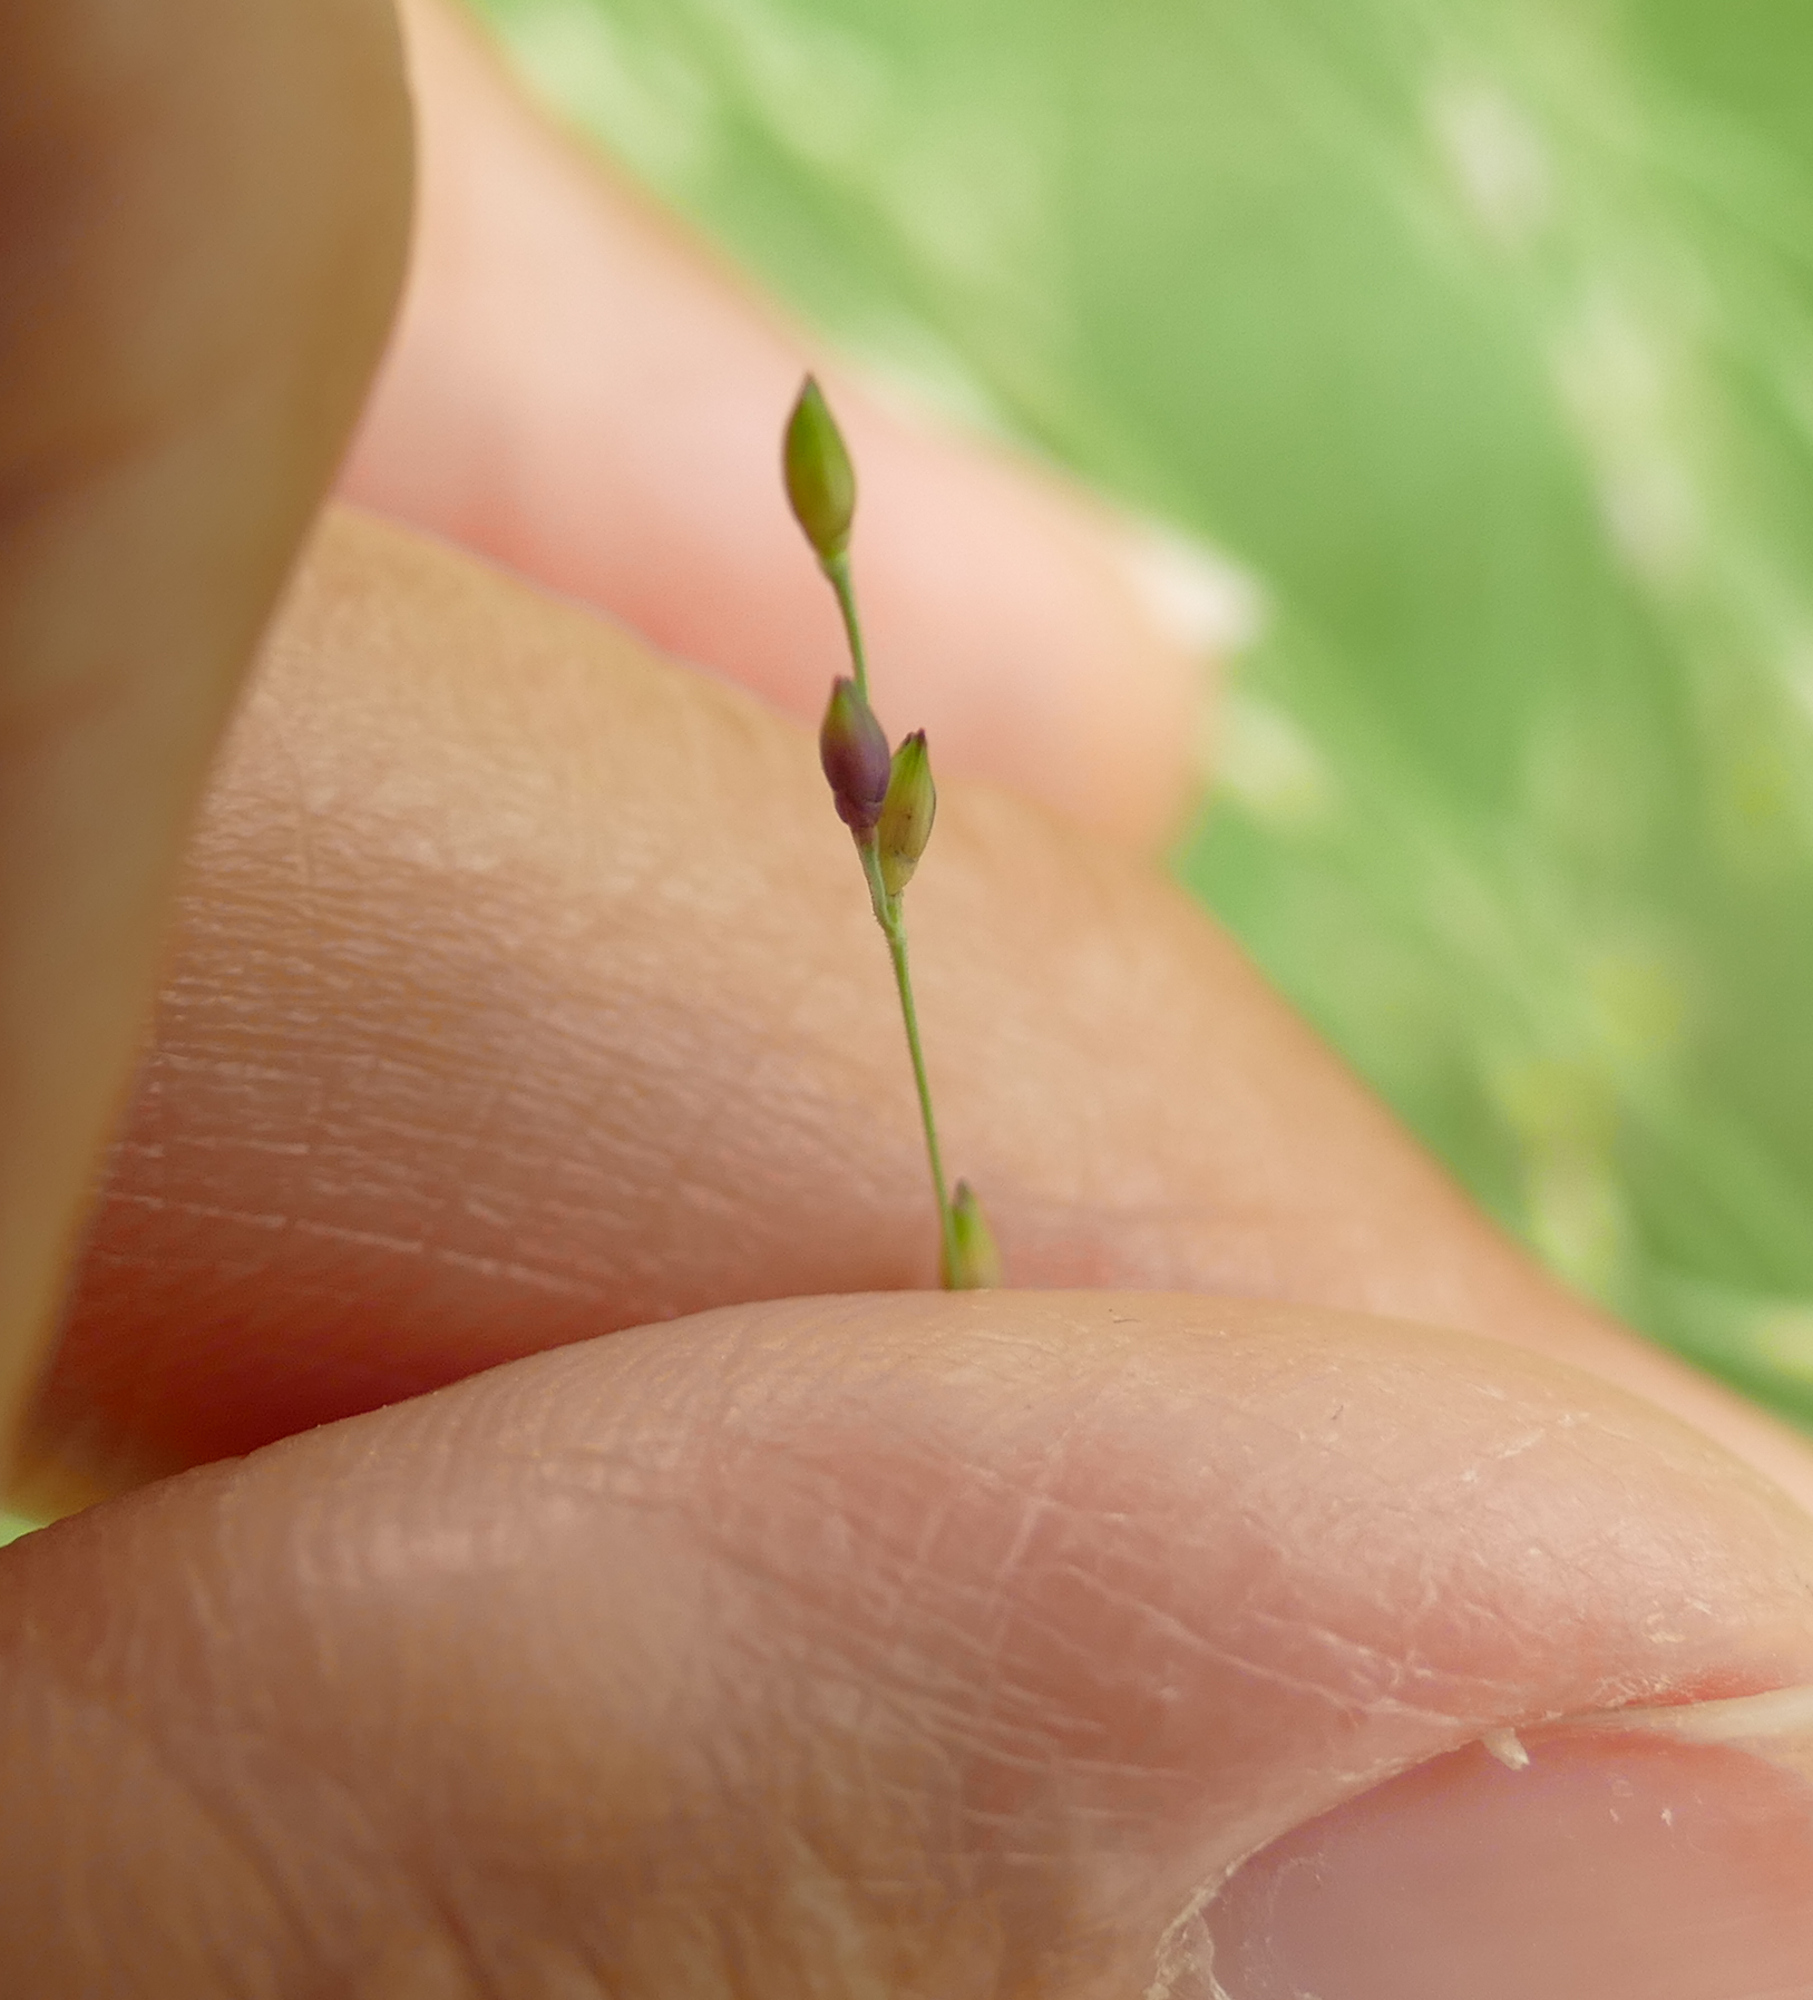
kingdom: Plantae
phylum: Tracheophyta
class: Liliopsida
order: Poales
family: Poaceae
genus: Panicum
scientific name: Panicum dichotomiflorum
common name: Autumn millet
